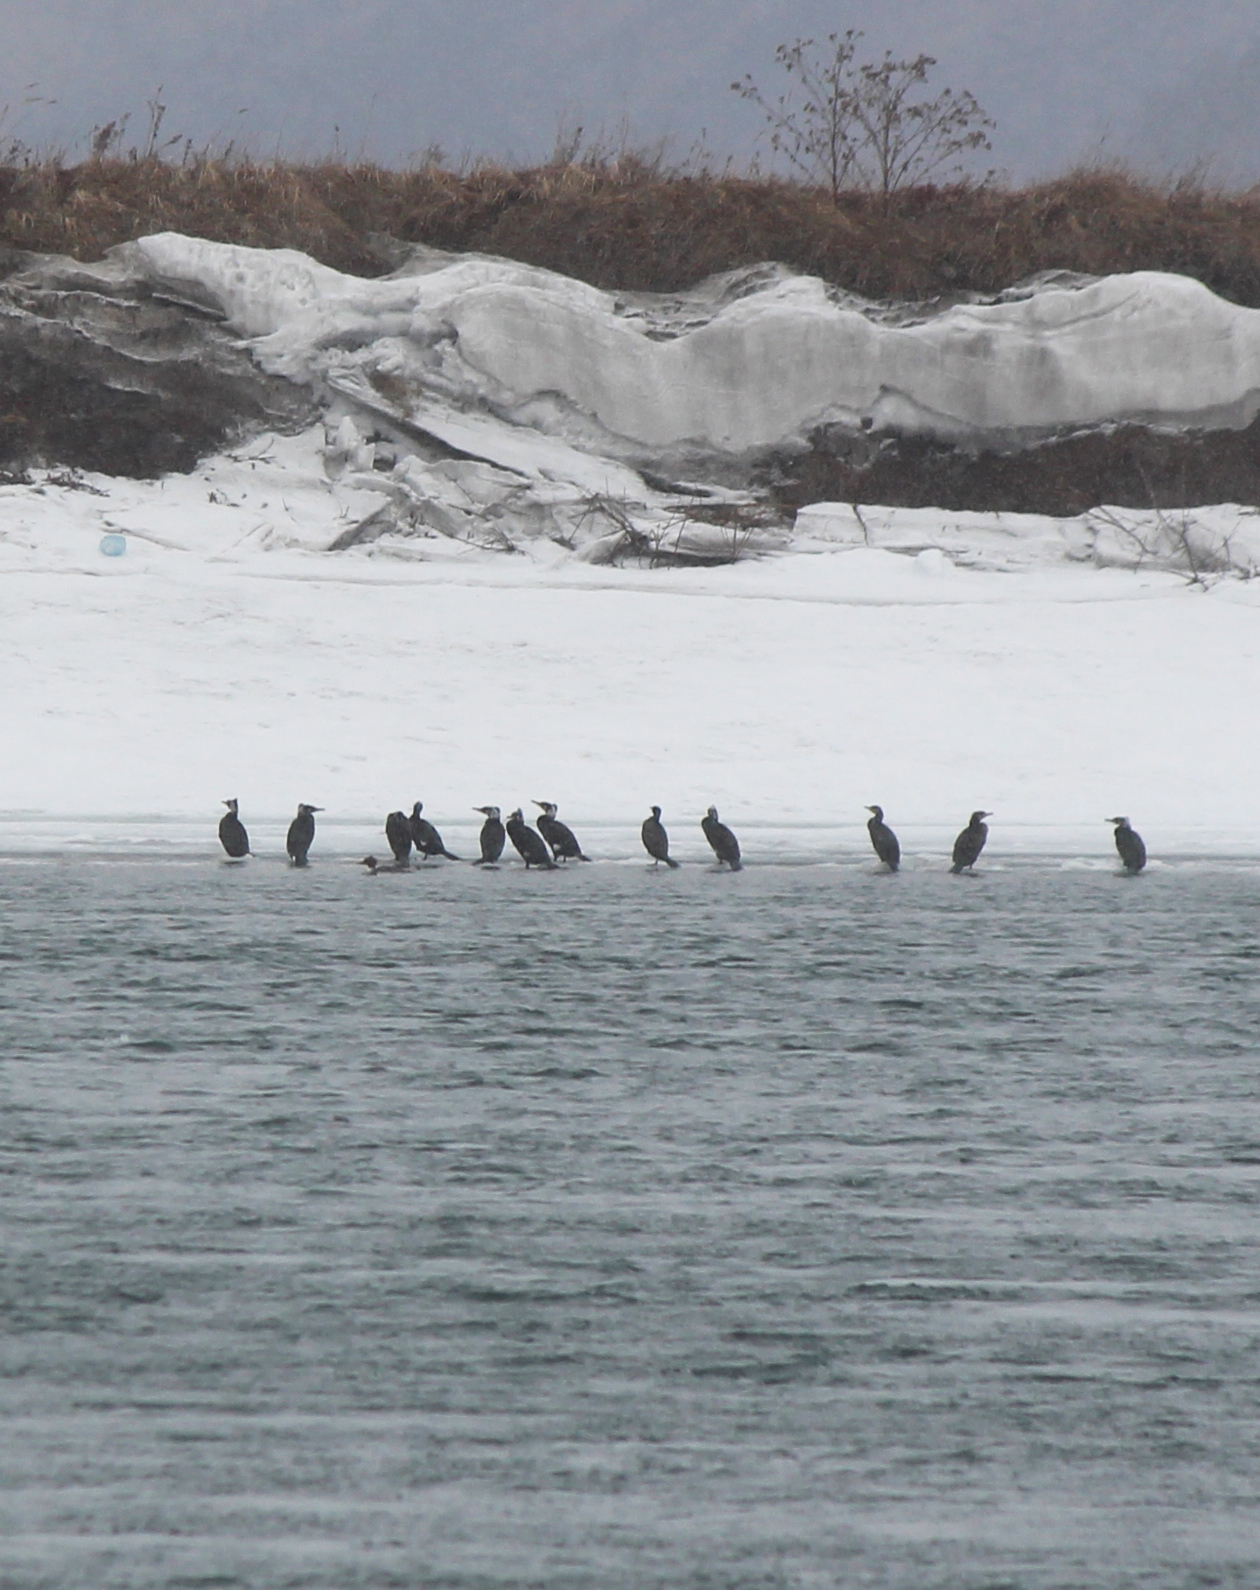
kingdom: Animalia
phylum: Chordata
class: Aves
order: Suliformes
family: Phalacrocoracidae
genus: Phalacrocorax
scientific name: Phalacrocorax carbo
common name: Great cormorant
